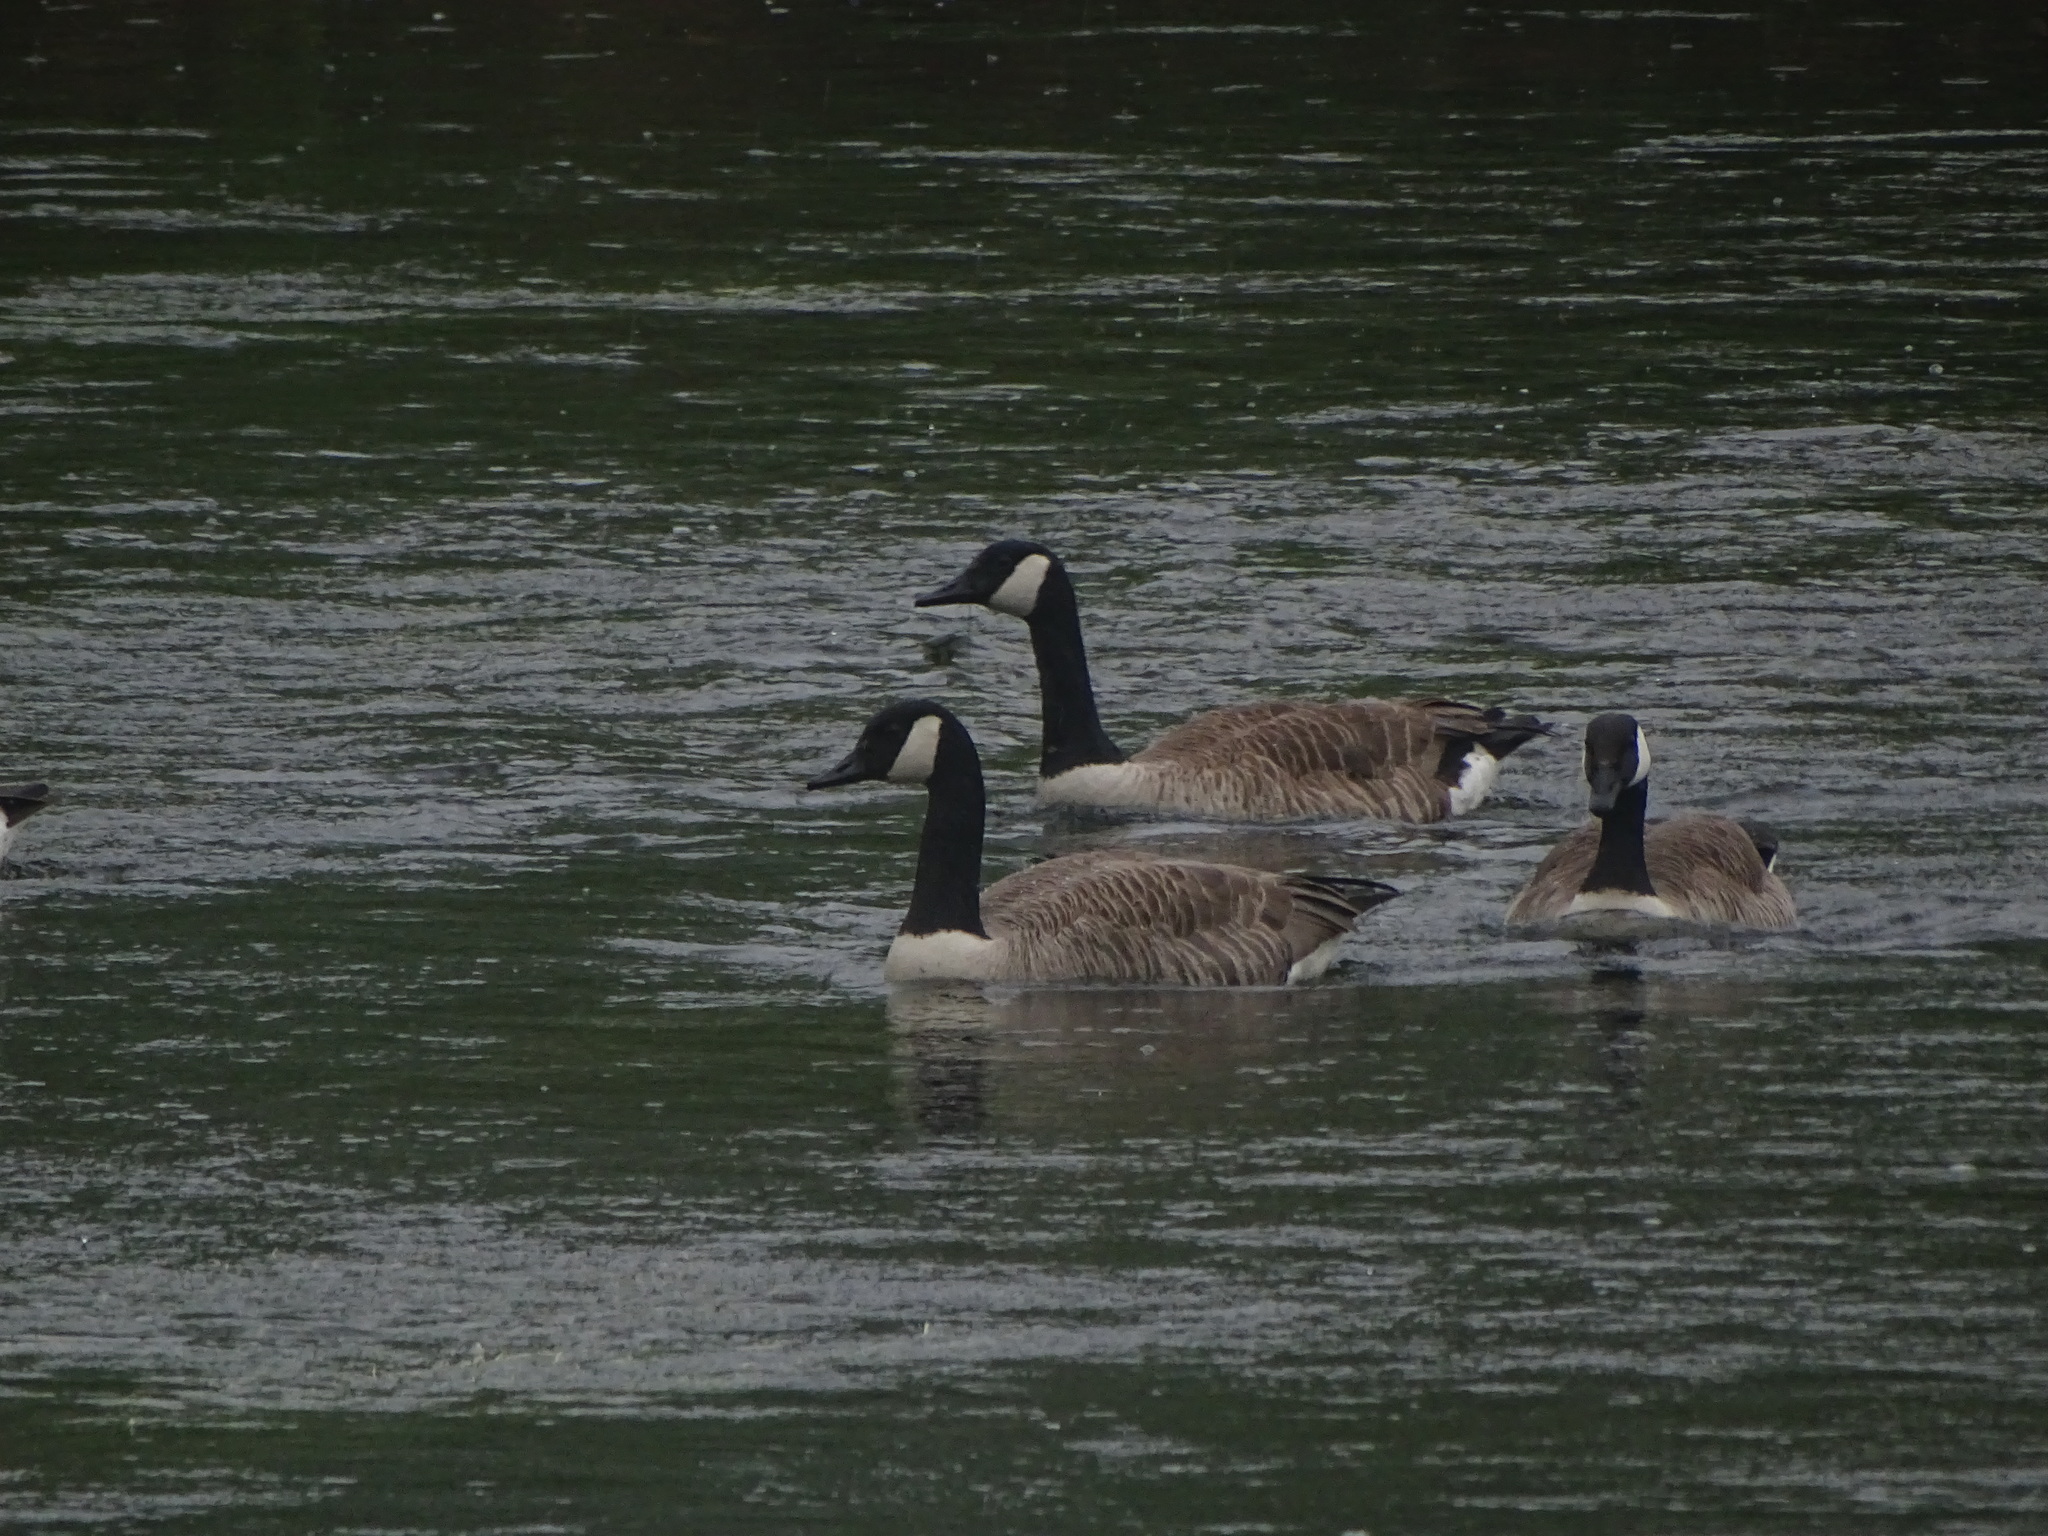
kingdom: Animalia
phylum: Chordata
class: Aves
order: Anseriformes
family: Anatidae
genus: Branta
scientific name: Branta canadensis
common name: Canada goose
